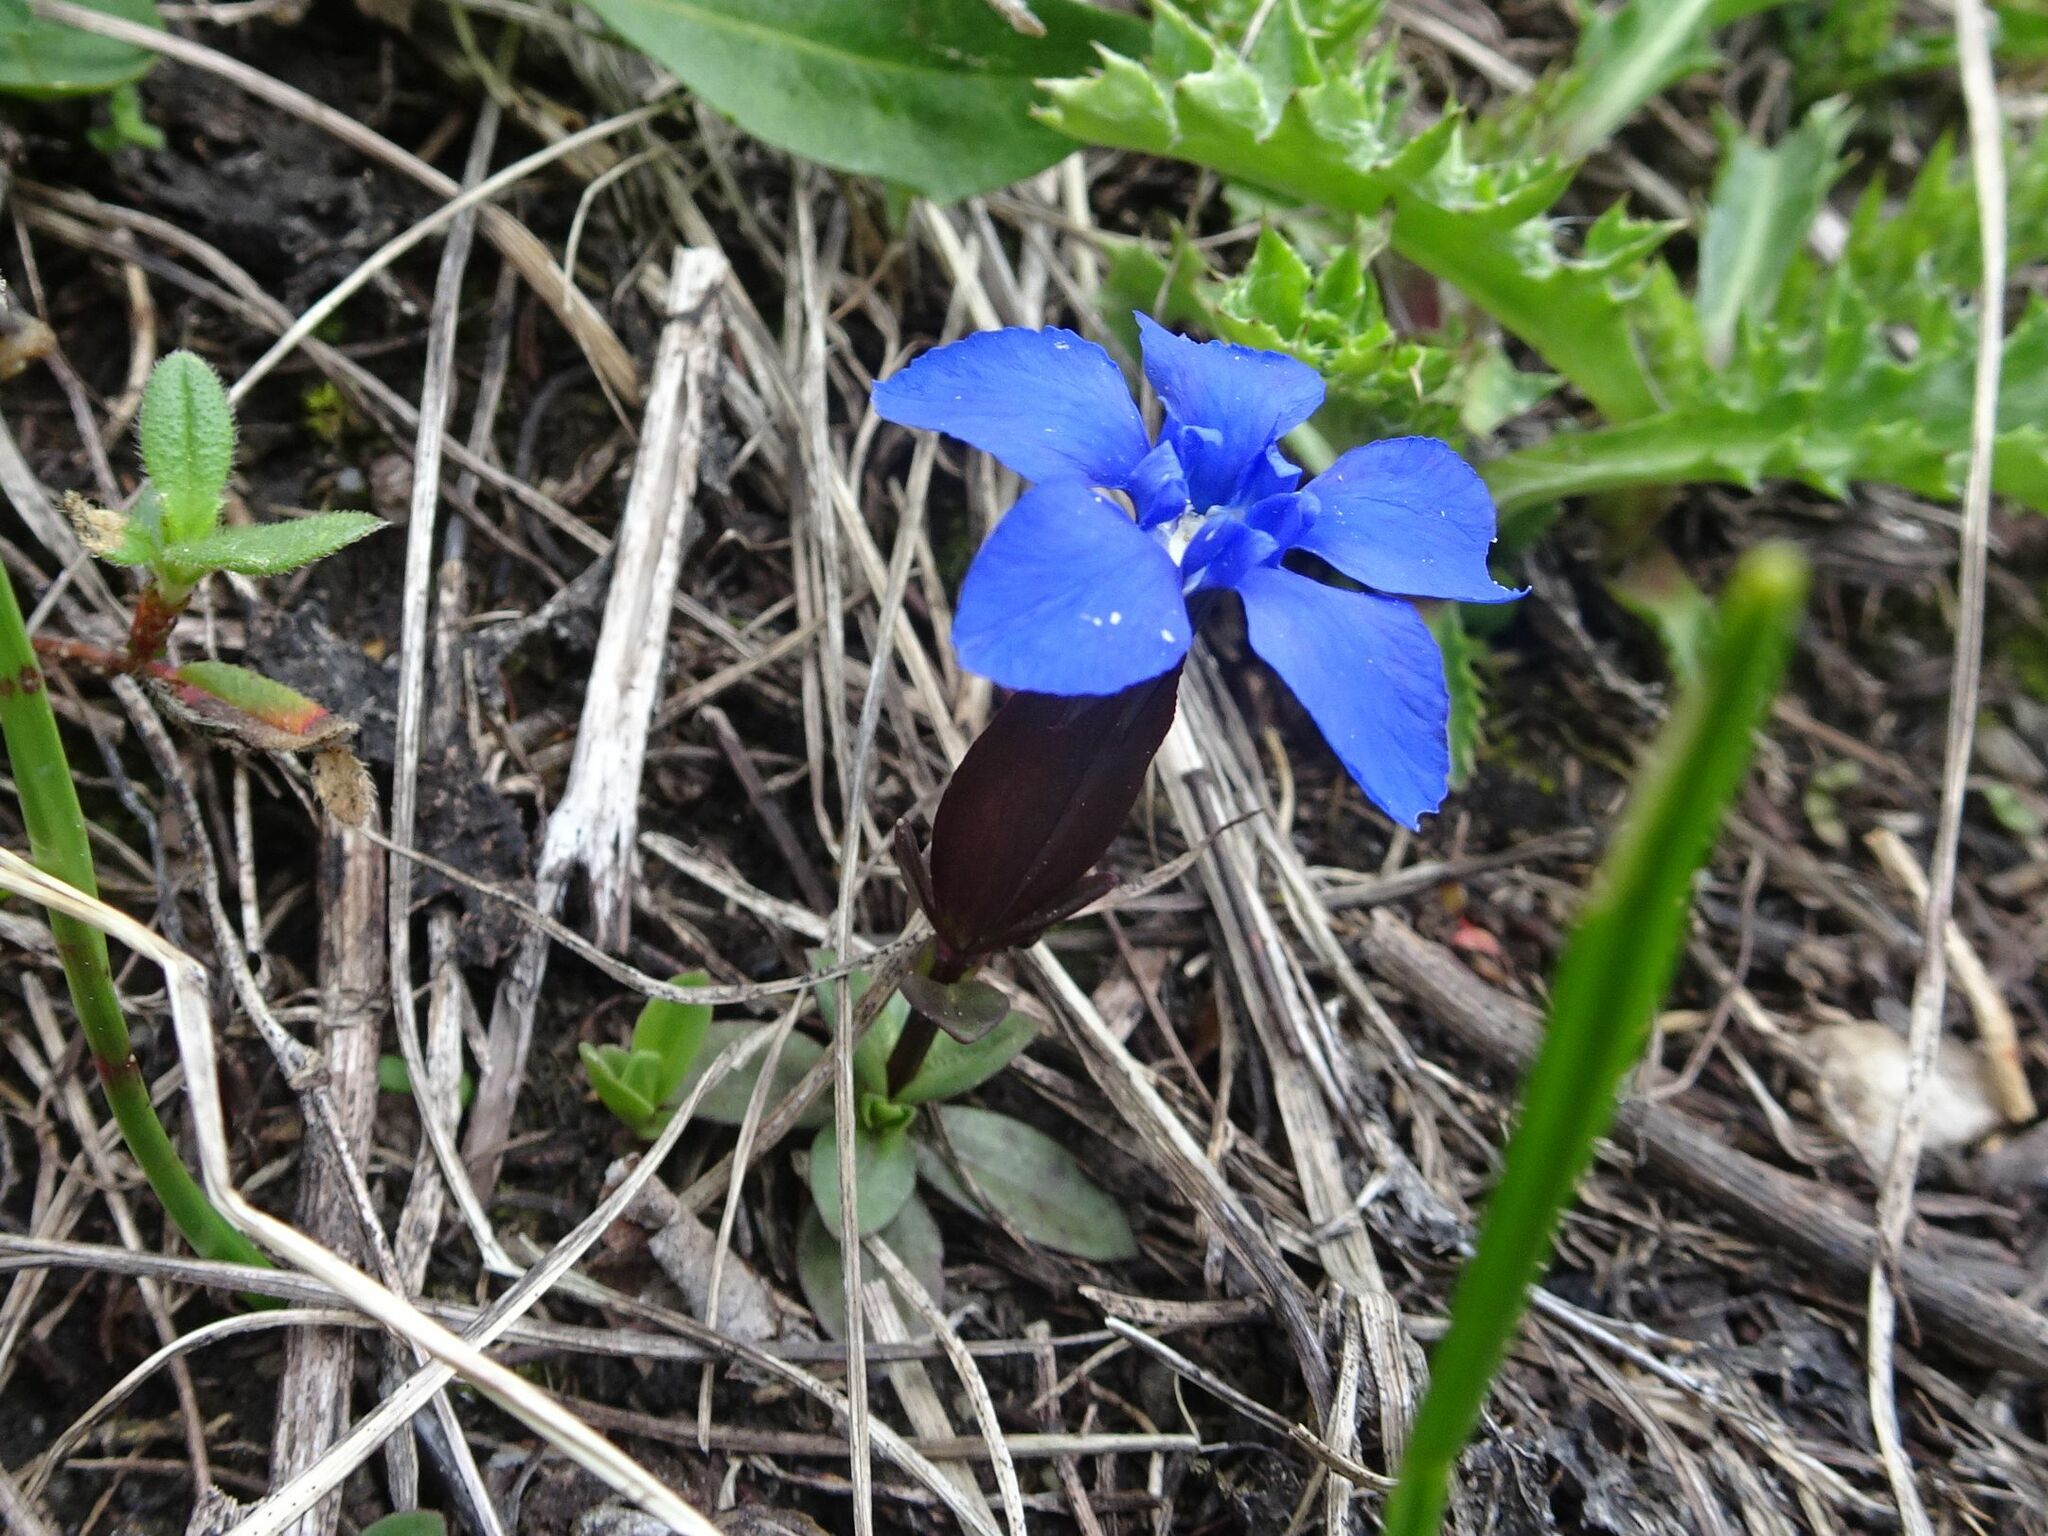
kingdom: Plantae
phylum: Tracheophyta
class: Magnoliopsida
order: Gentianales
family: Gentianaceae
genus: Gentiana
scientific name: Gentiana verna
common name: Spring gentian
